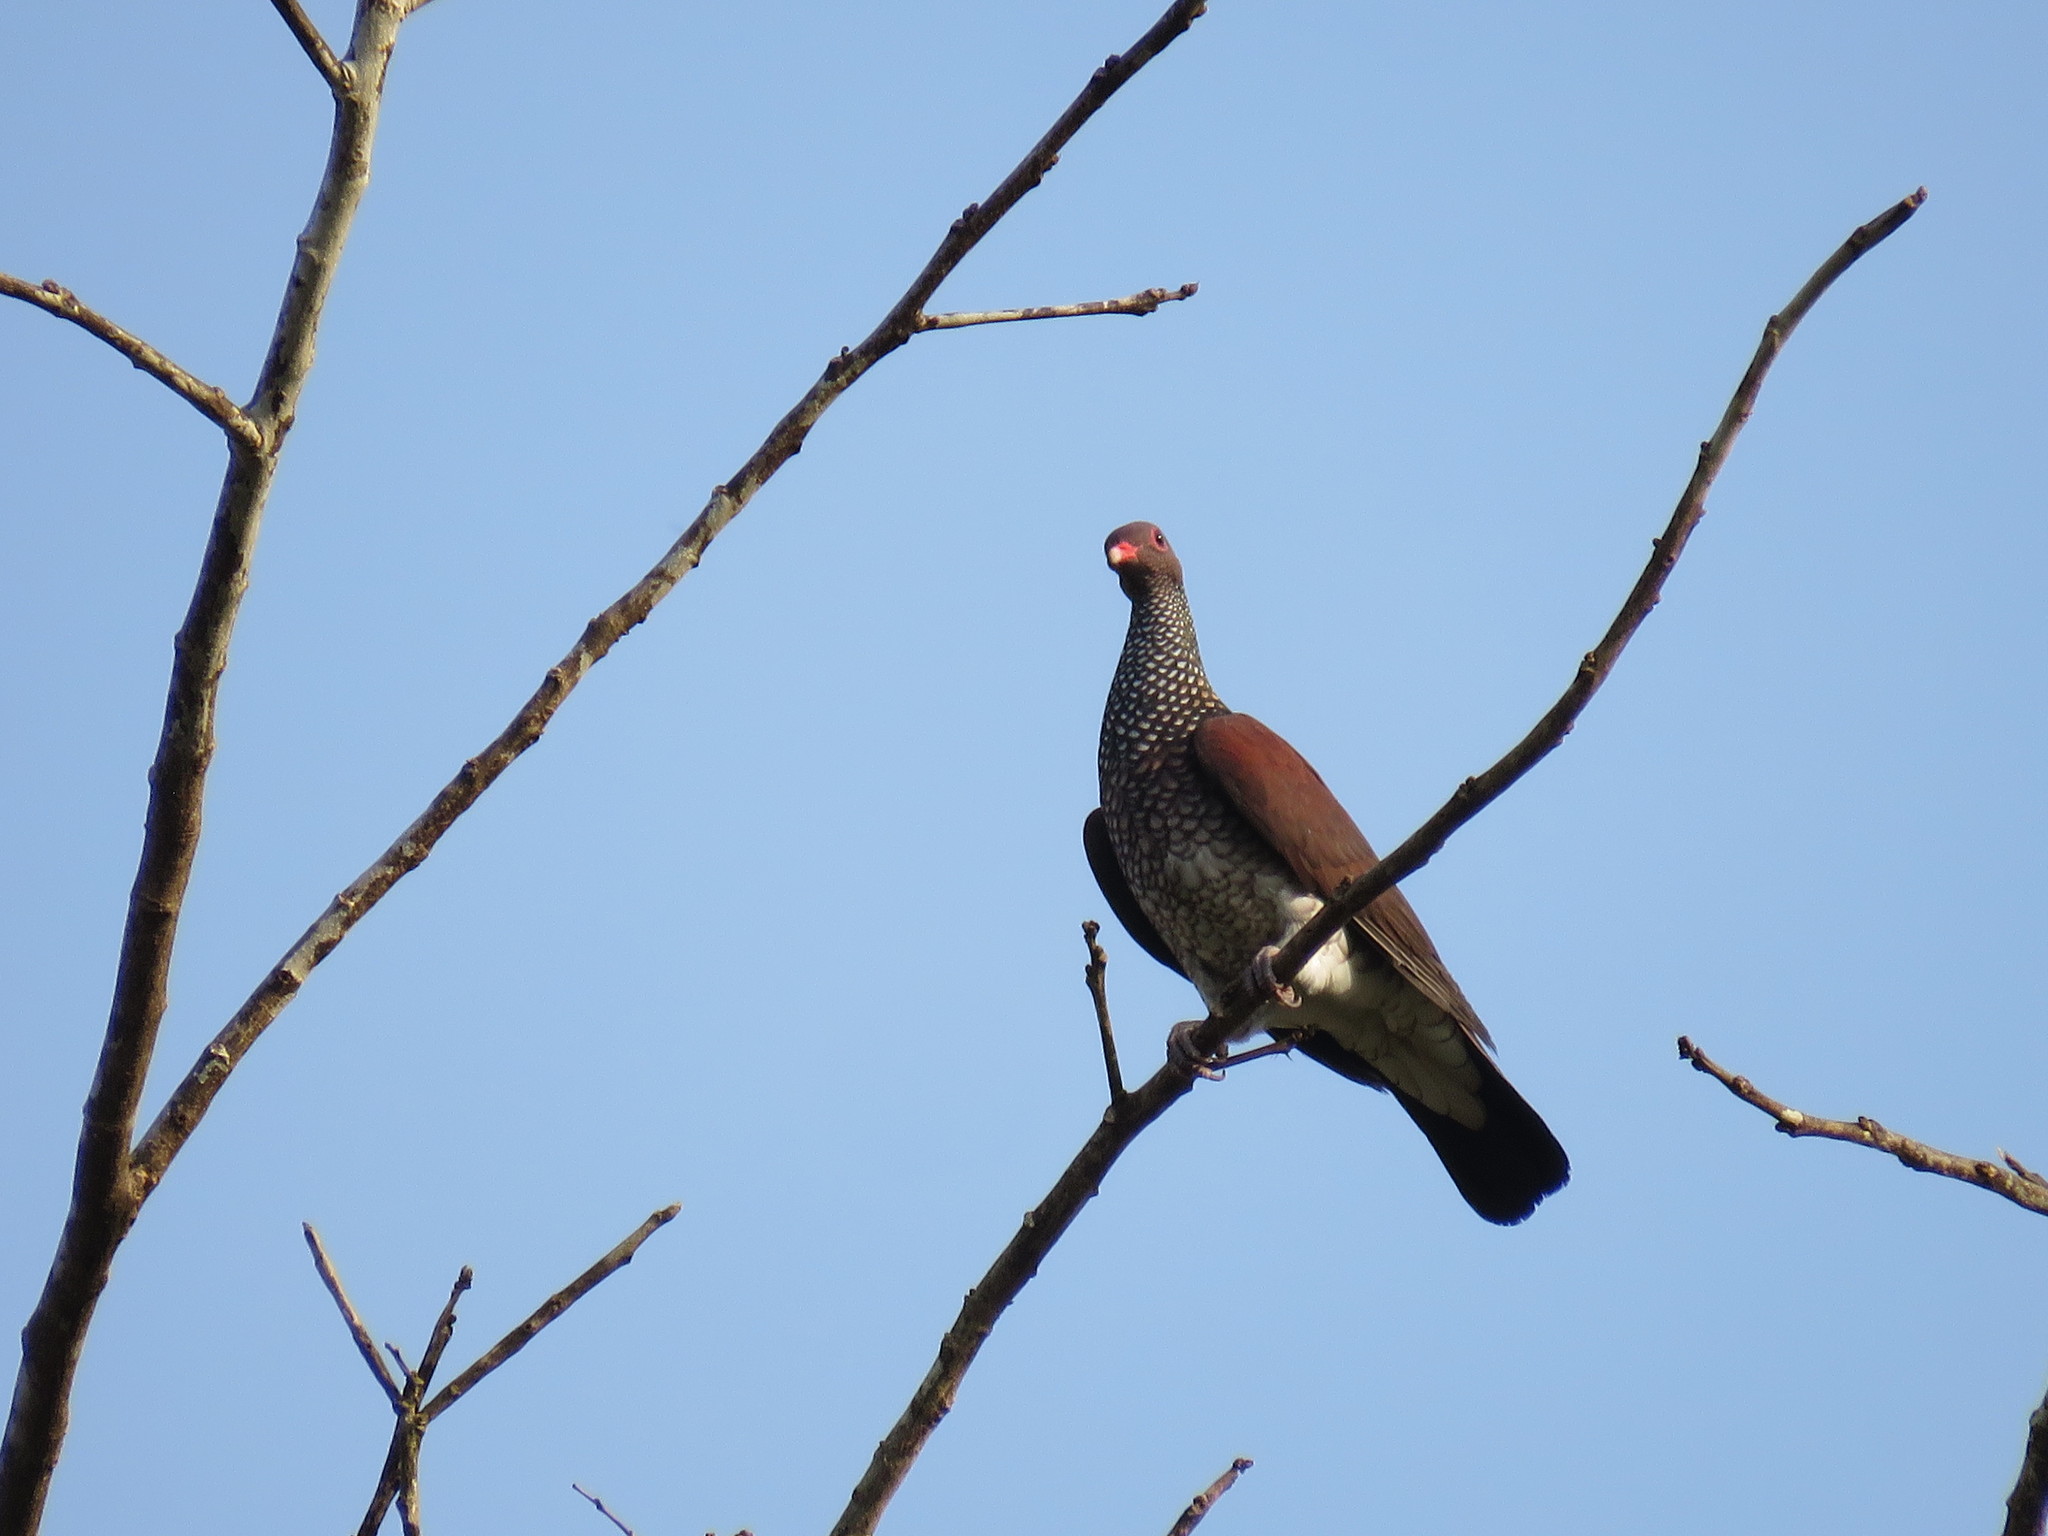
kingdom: Animalia
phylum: Chordata
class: Aves
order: Columbiformes
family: Columbidae
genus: Patagioenas
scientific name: Patagioenas speciosa
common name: Scaled pigeon
